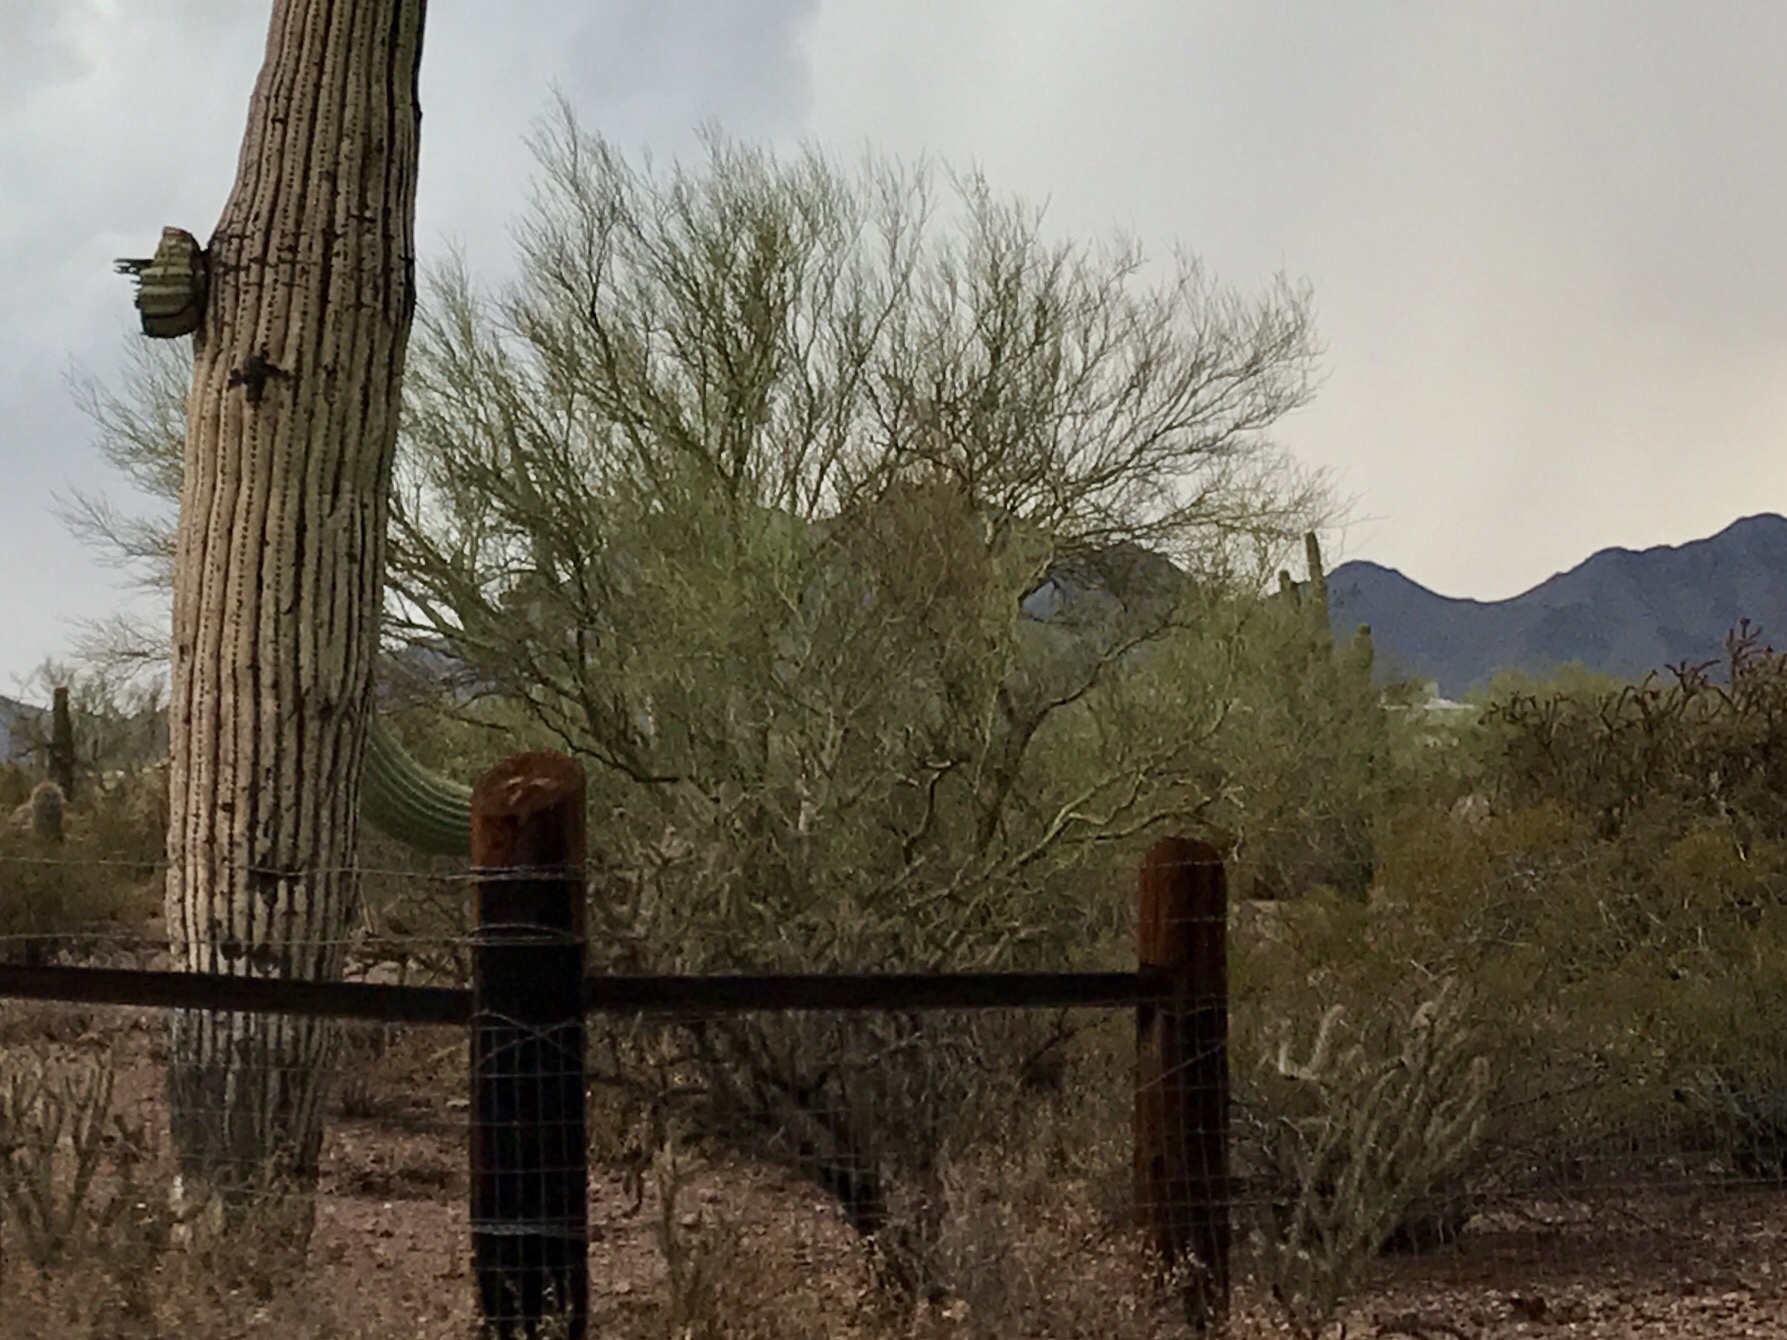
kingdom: Plantae
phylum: Tracheophyta
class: Magnoliopsida
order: Fabales
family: Fabaceae
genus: Parkinsonia
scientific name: Parkinsonia florida
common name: Blue paloverde
